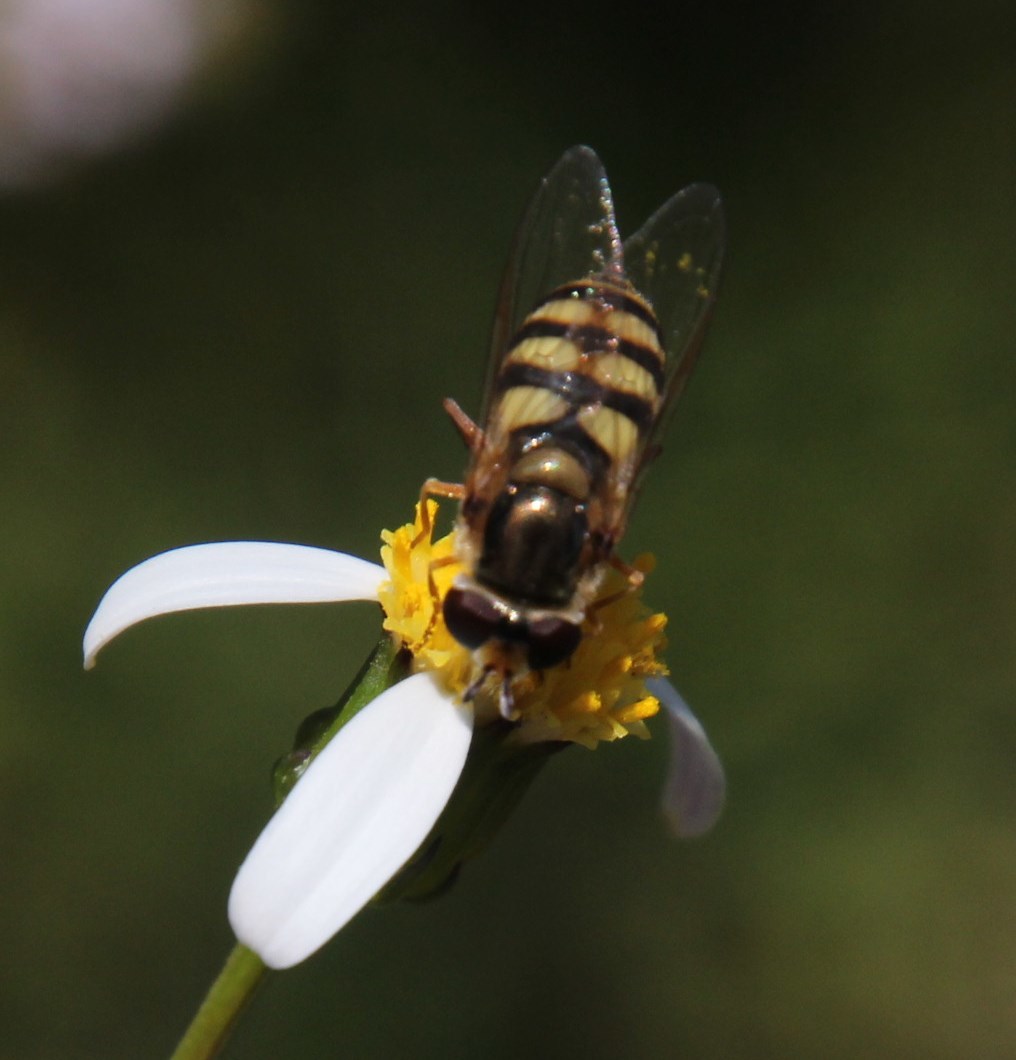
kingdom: Animalia
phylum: Arthropoda
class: Insecta
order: Diptera
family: Syrphidae
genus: Eupeodes
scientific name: Eupeodes corollae
